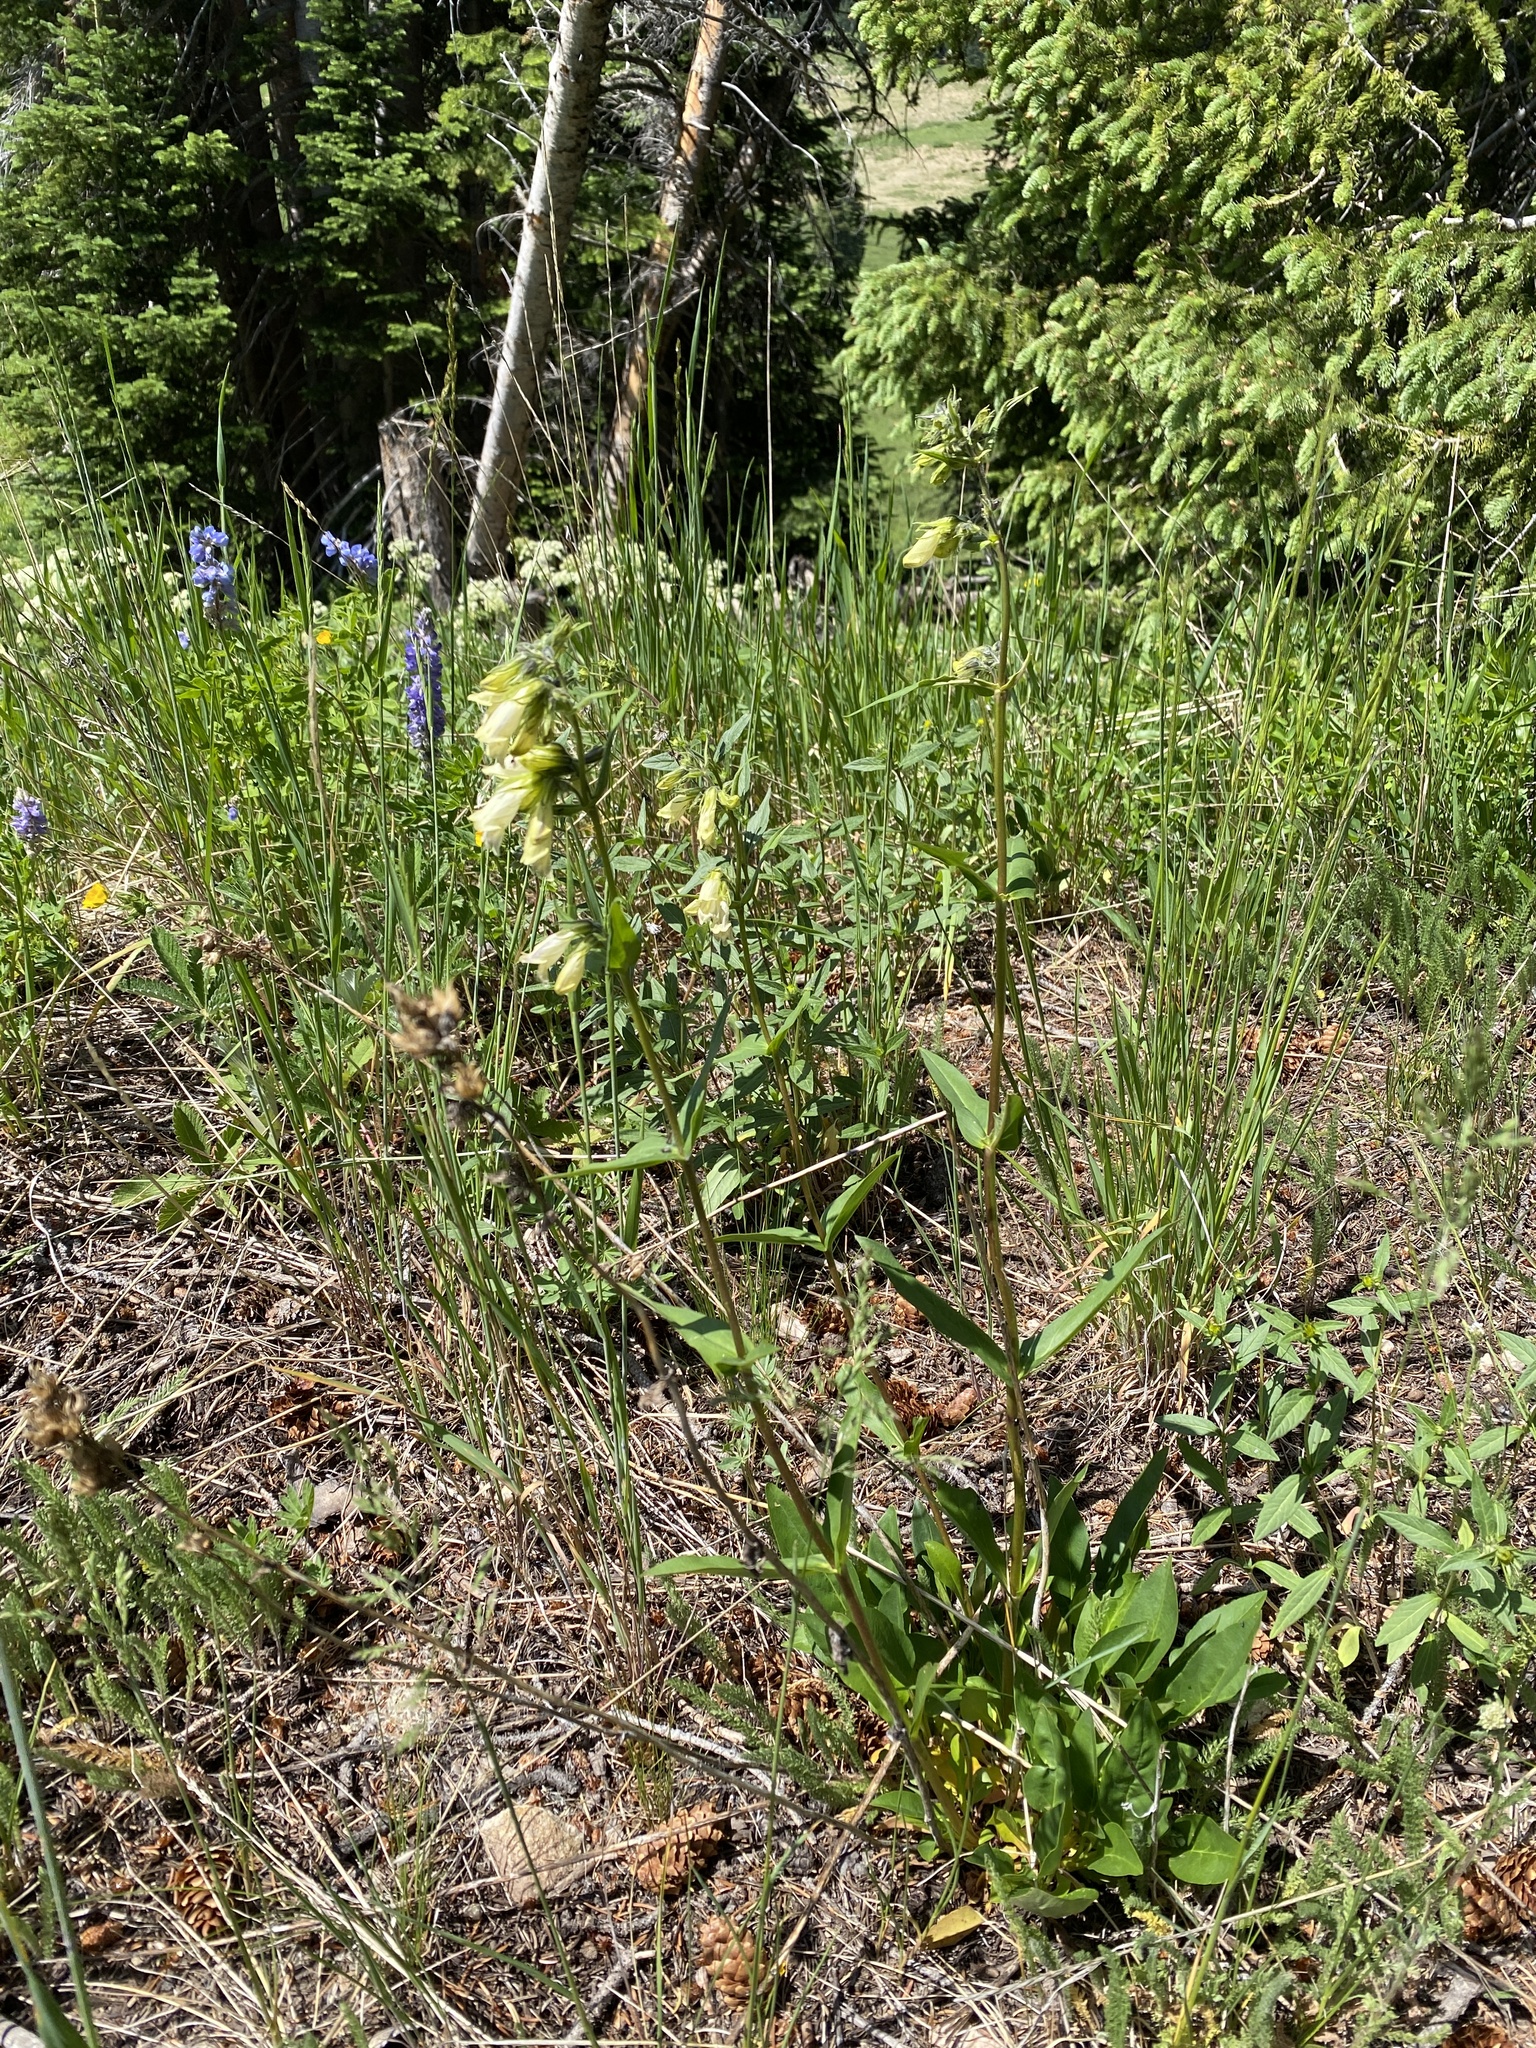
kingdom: Plantae
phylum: Tracheophyta
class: Magnoliopsida
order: Lamiales
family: Plantaginaceae
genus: Penstemon
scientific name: Penstemon whippleanus
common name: Whipple's penstemon
